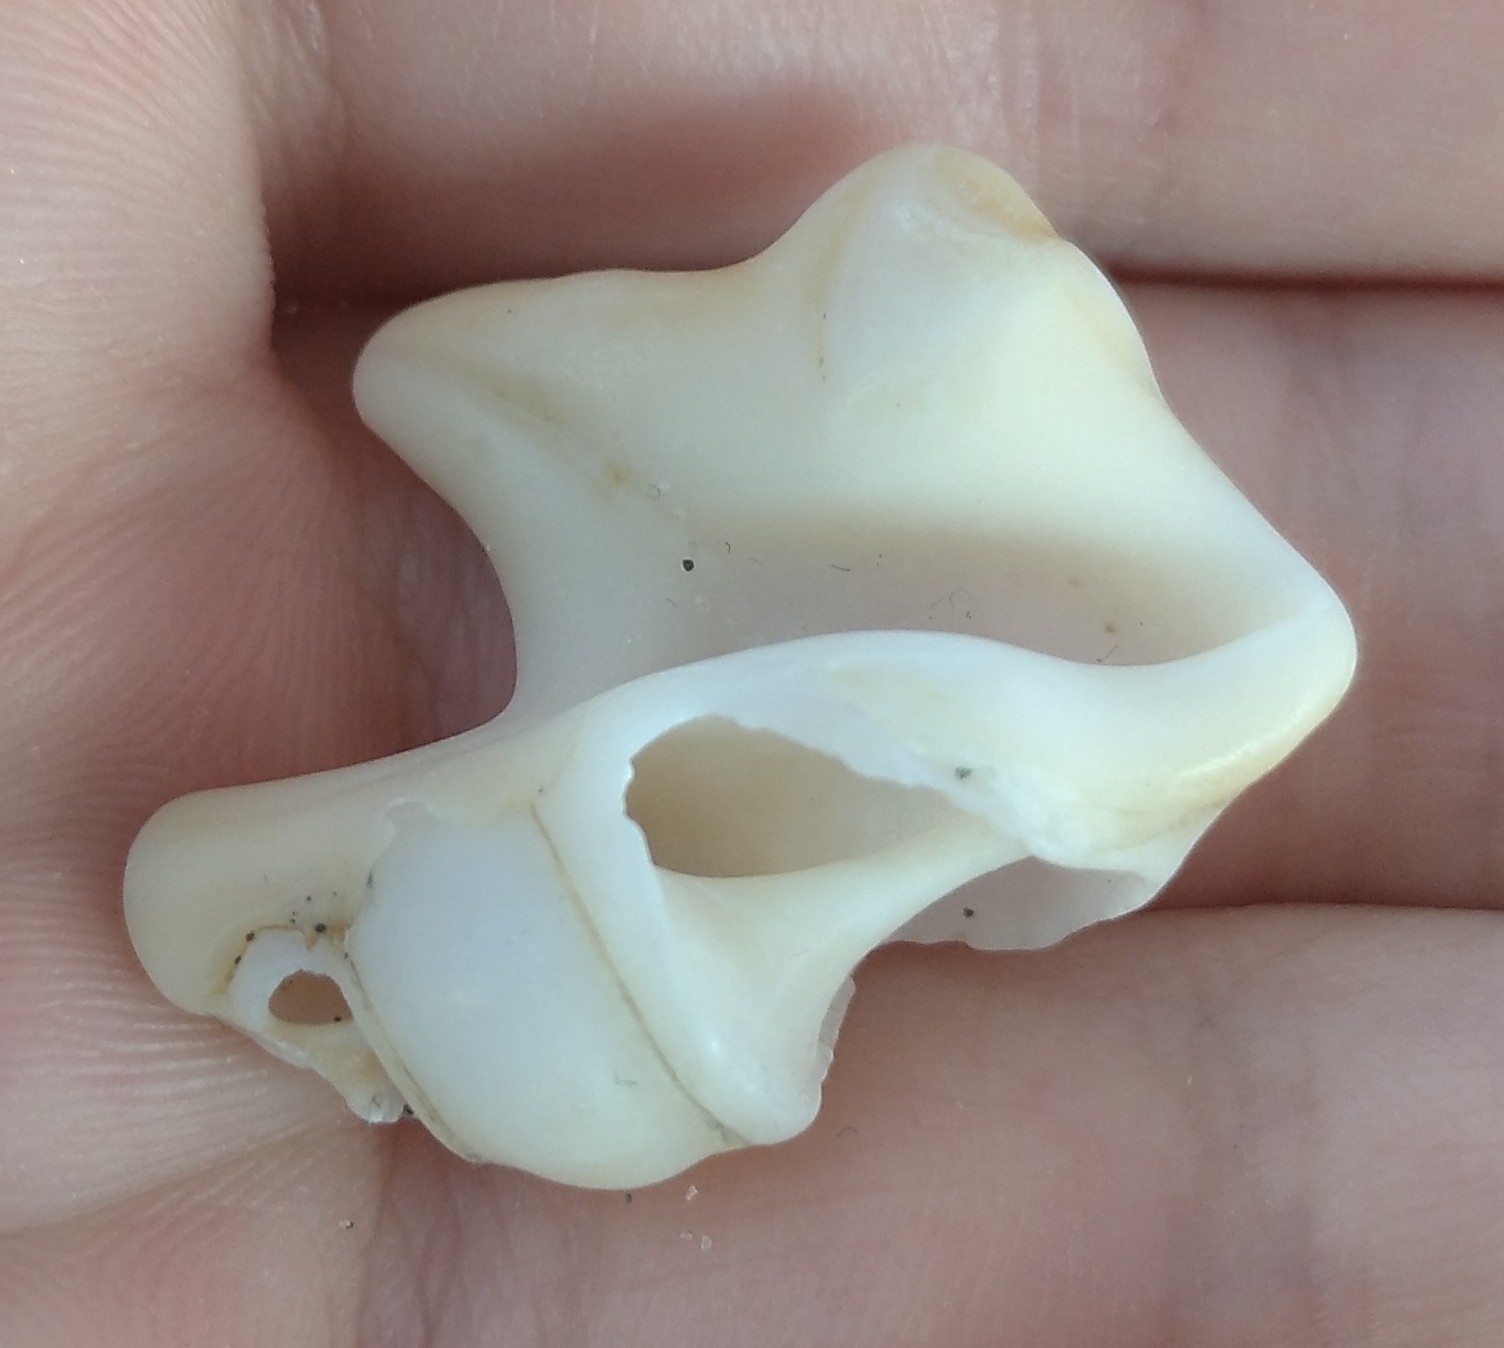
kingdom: Animalia
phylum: Mollusca
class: Gastropoda
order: Littorinimorpha
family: Aporrhaidae
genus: Aporrhais
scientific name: Aporrhais pespelecani
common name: Common pelican’s foot
